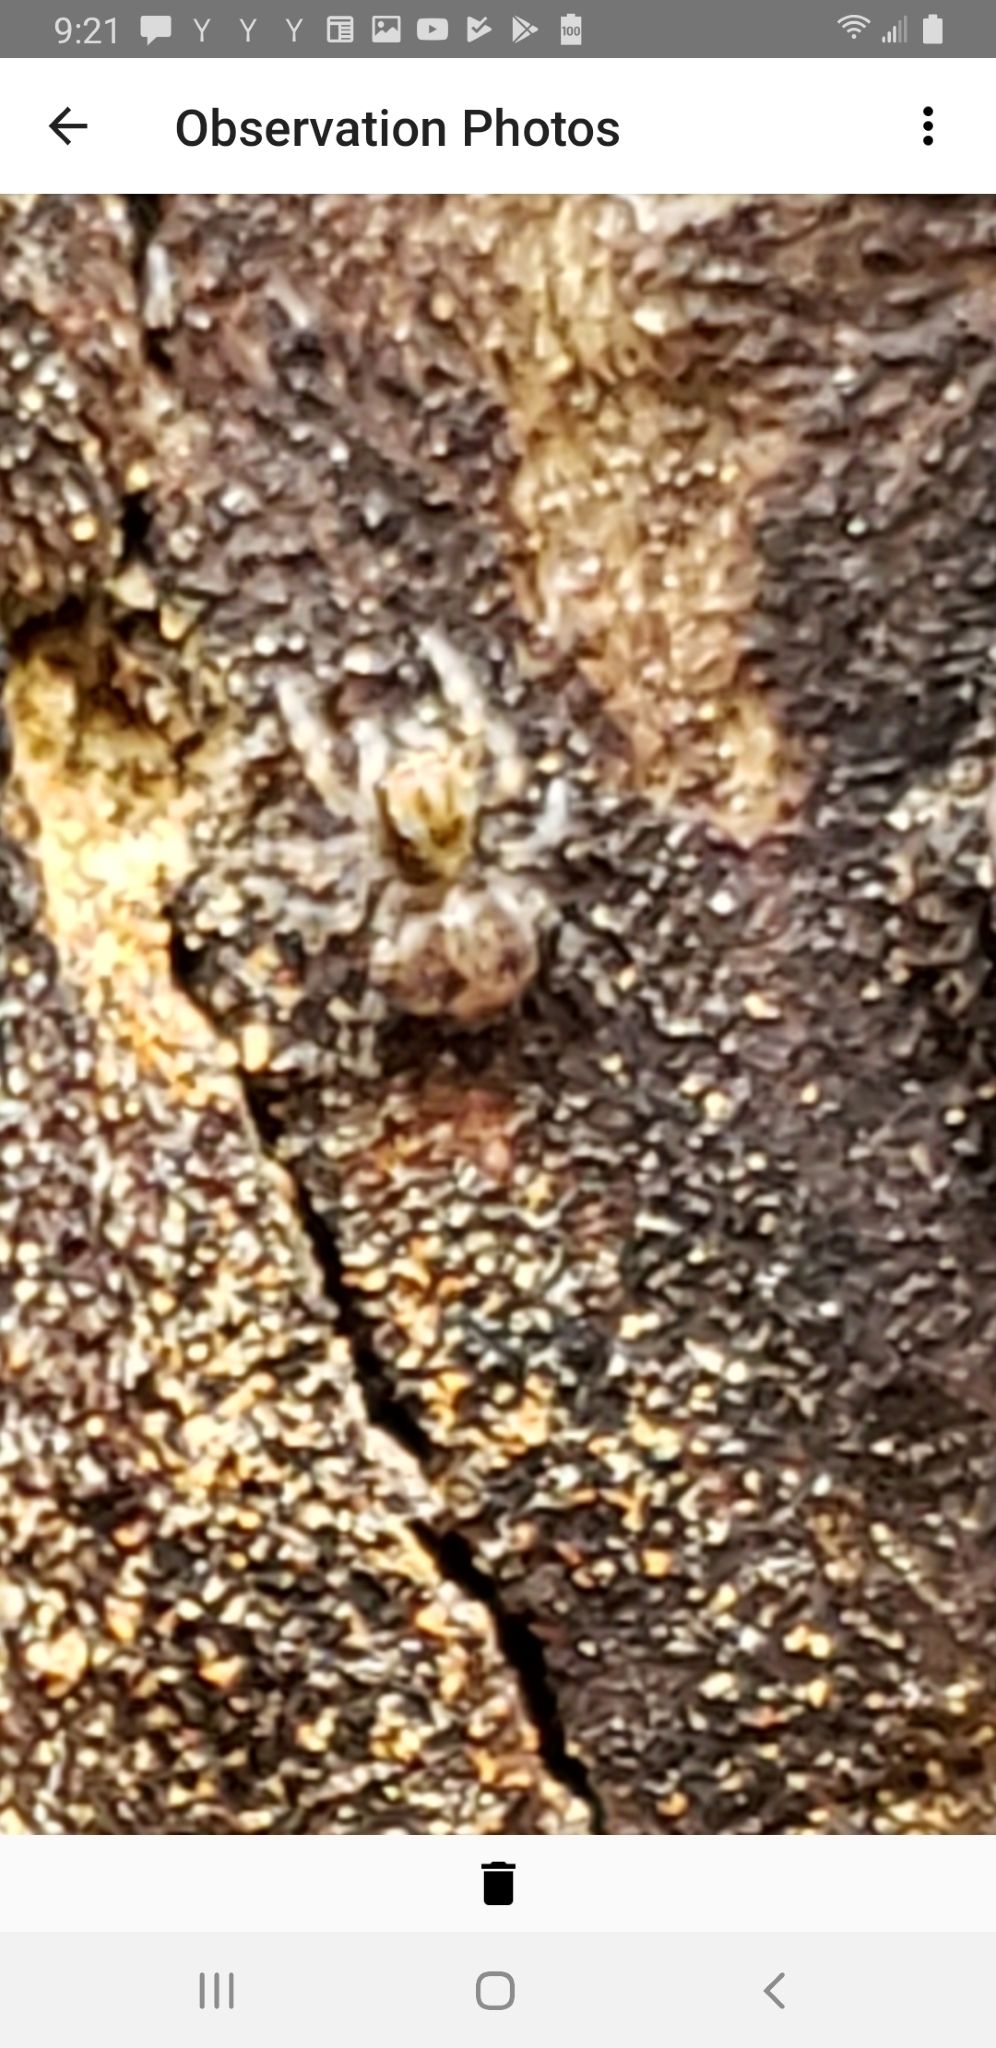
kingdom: Animalia
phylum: Arthropoda
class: Arachnida
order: Araneae
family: Salticidae
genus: Naphrys
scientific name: Naphrys pulex
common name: Flea jumping spider
